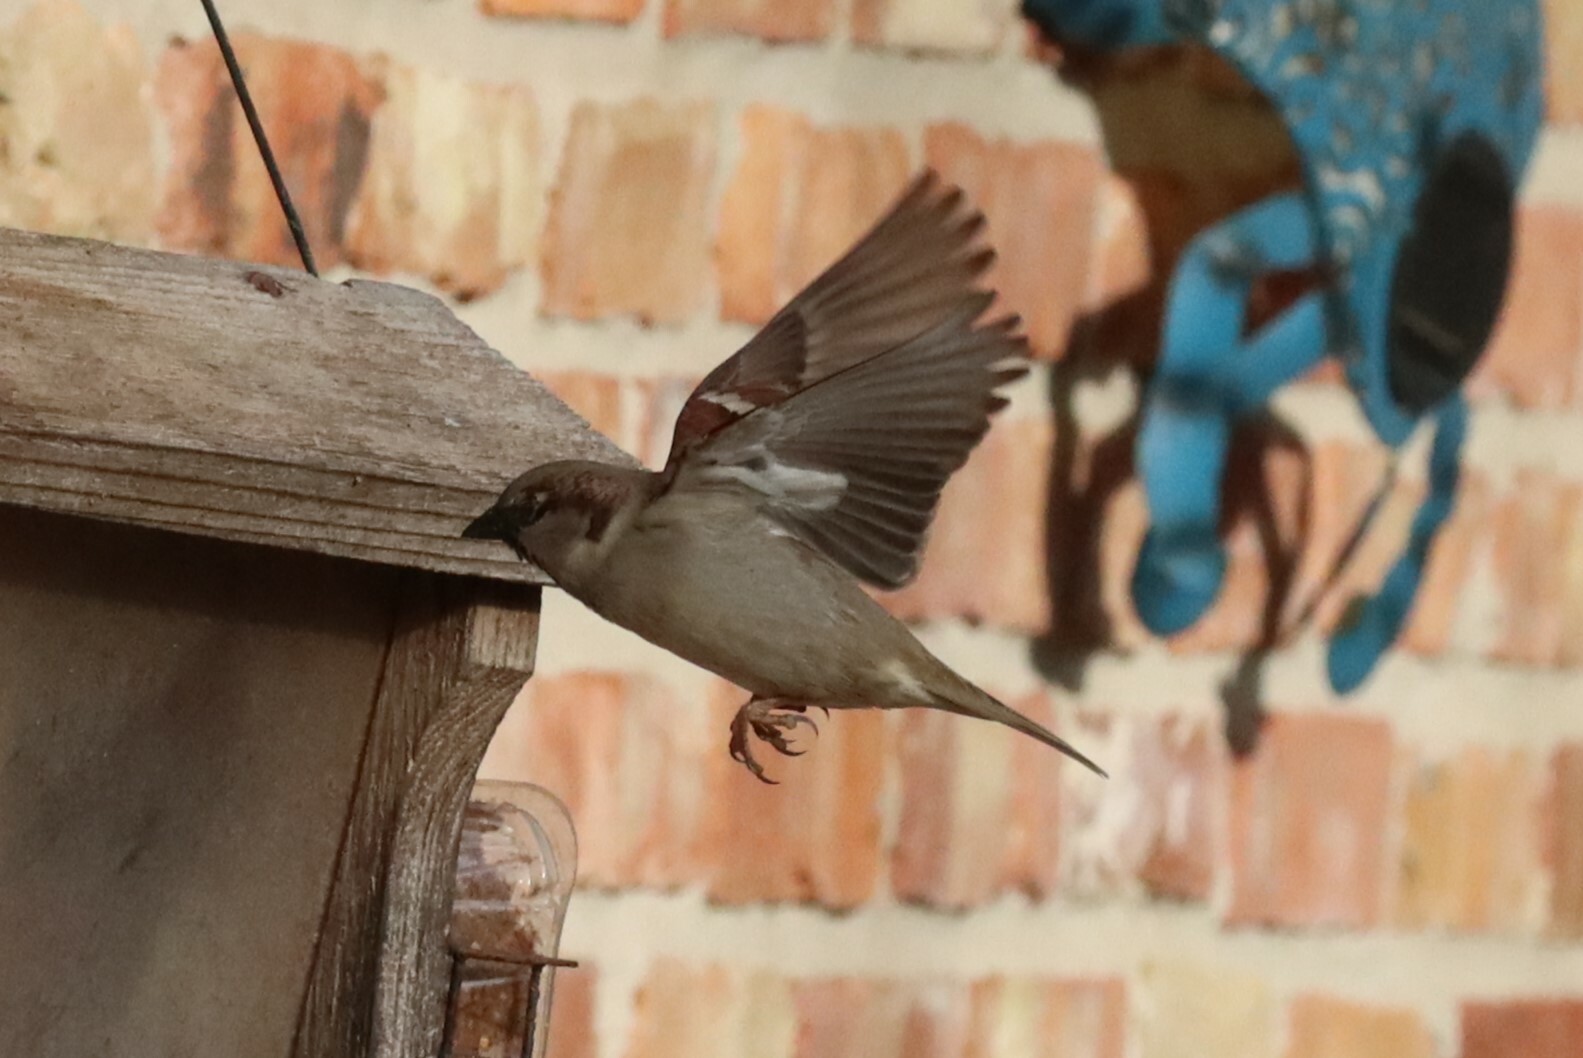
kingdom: Animalia
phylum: Chordata
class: Aves
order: Passeriformes
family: Passeridae
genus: Passer
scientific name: Passer domesticus
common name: House sparrow
